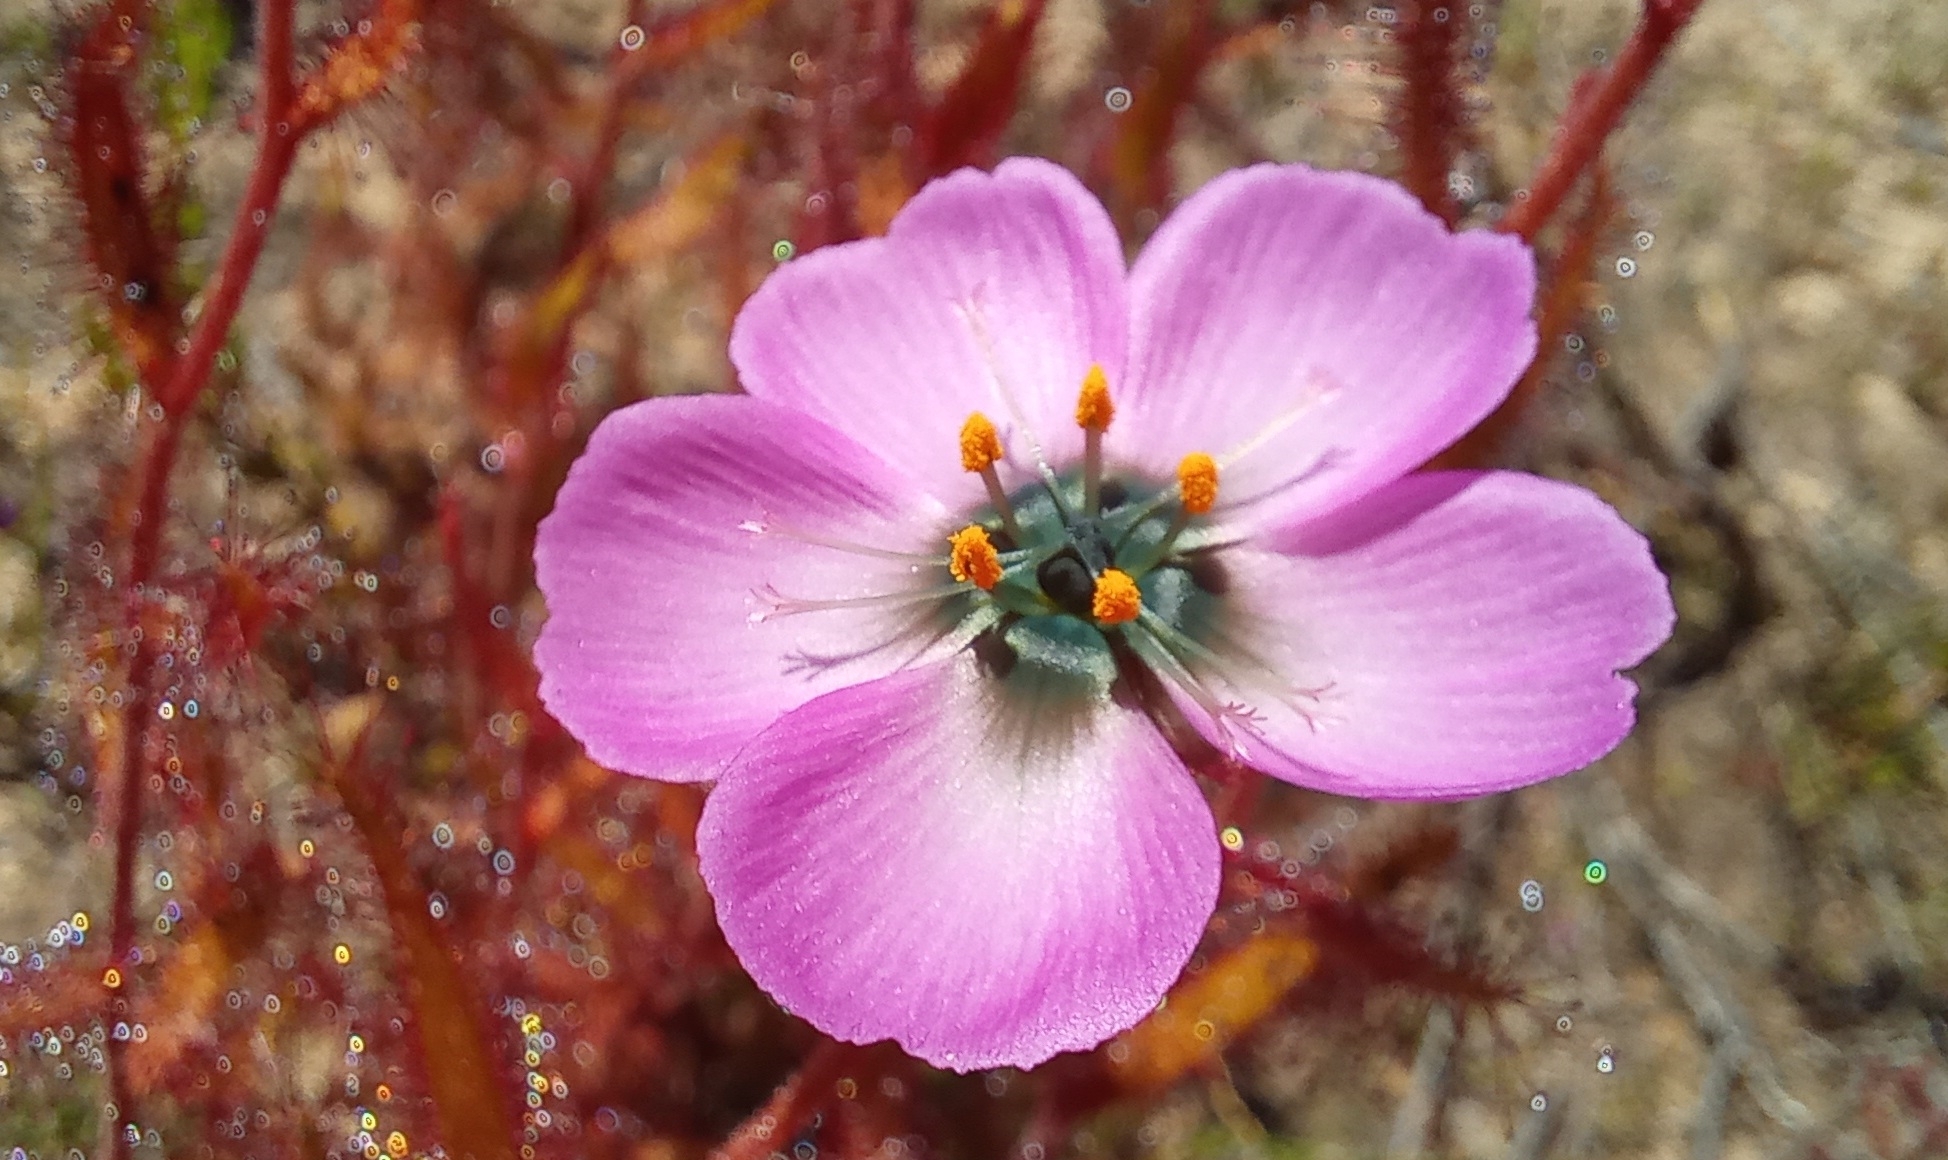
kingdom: Plantae
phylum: Tracheophyta
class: Magnoliopsida
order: Caryophyllales
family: Droseraceae
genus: Drosera
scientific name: Drosera cistiflora
